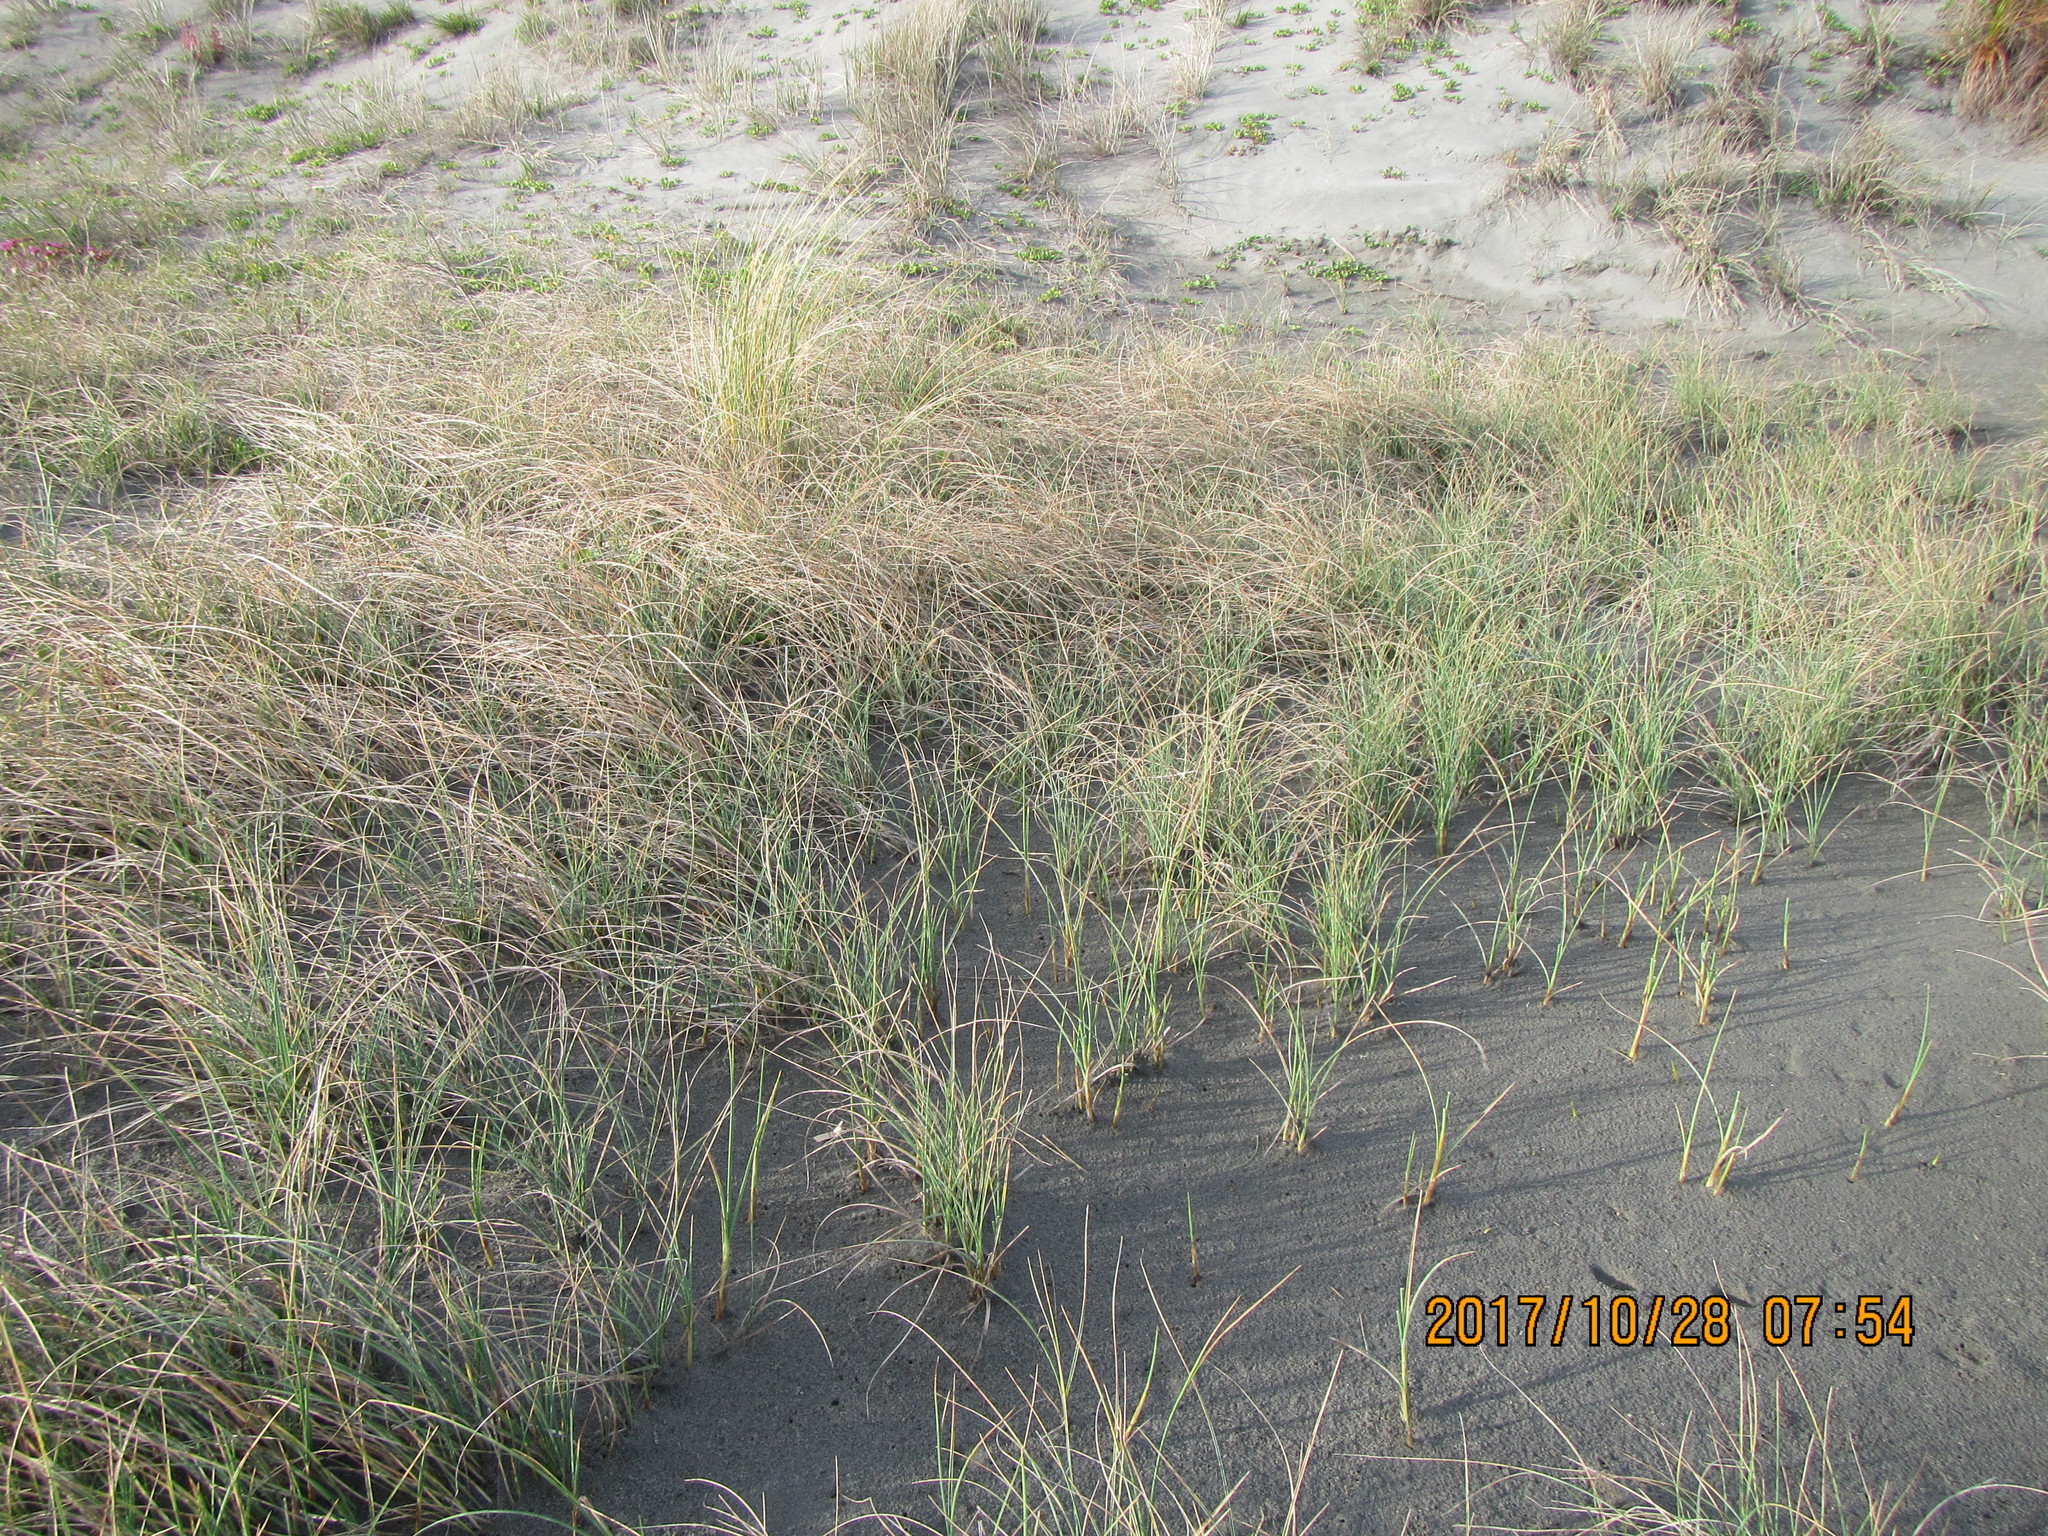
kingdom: Plantae
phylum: Tracheophyta
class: Liliopsida
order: Poales
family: Cyperaceae
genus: Carex
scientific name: Carex pumila
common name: Dwarf sedge
